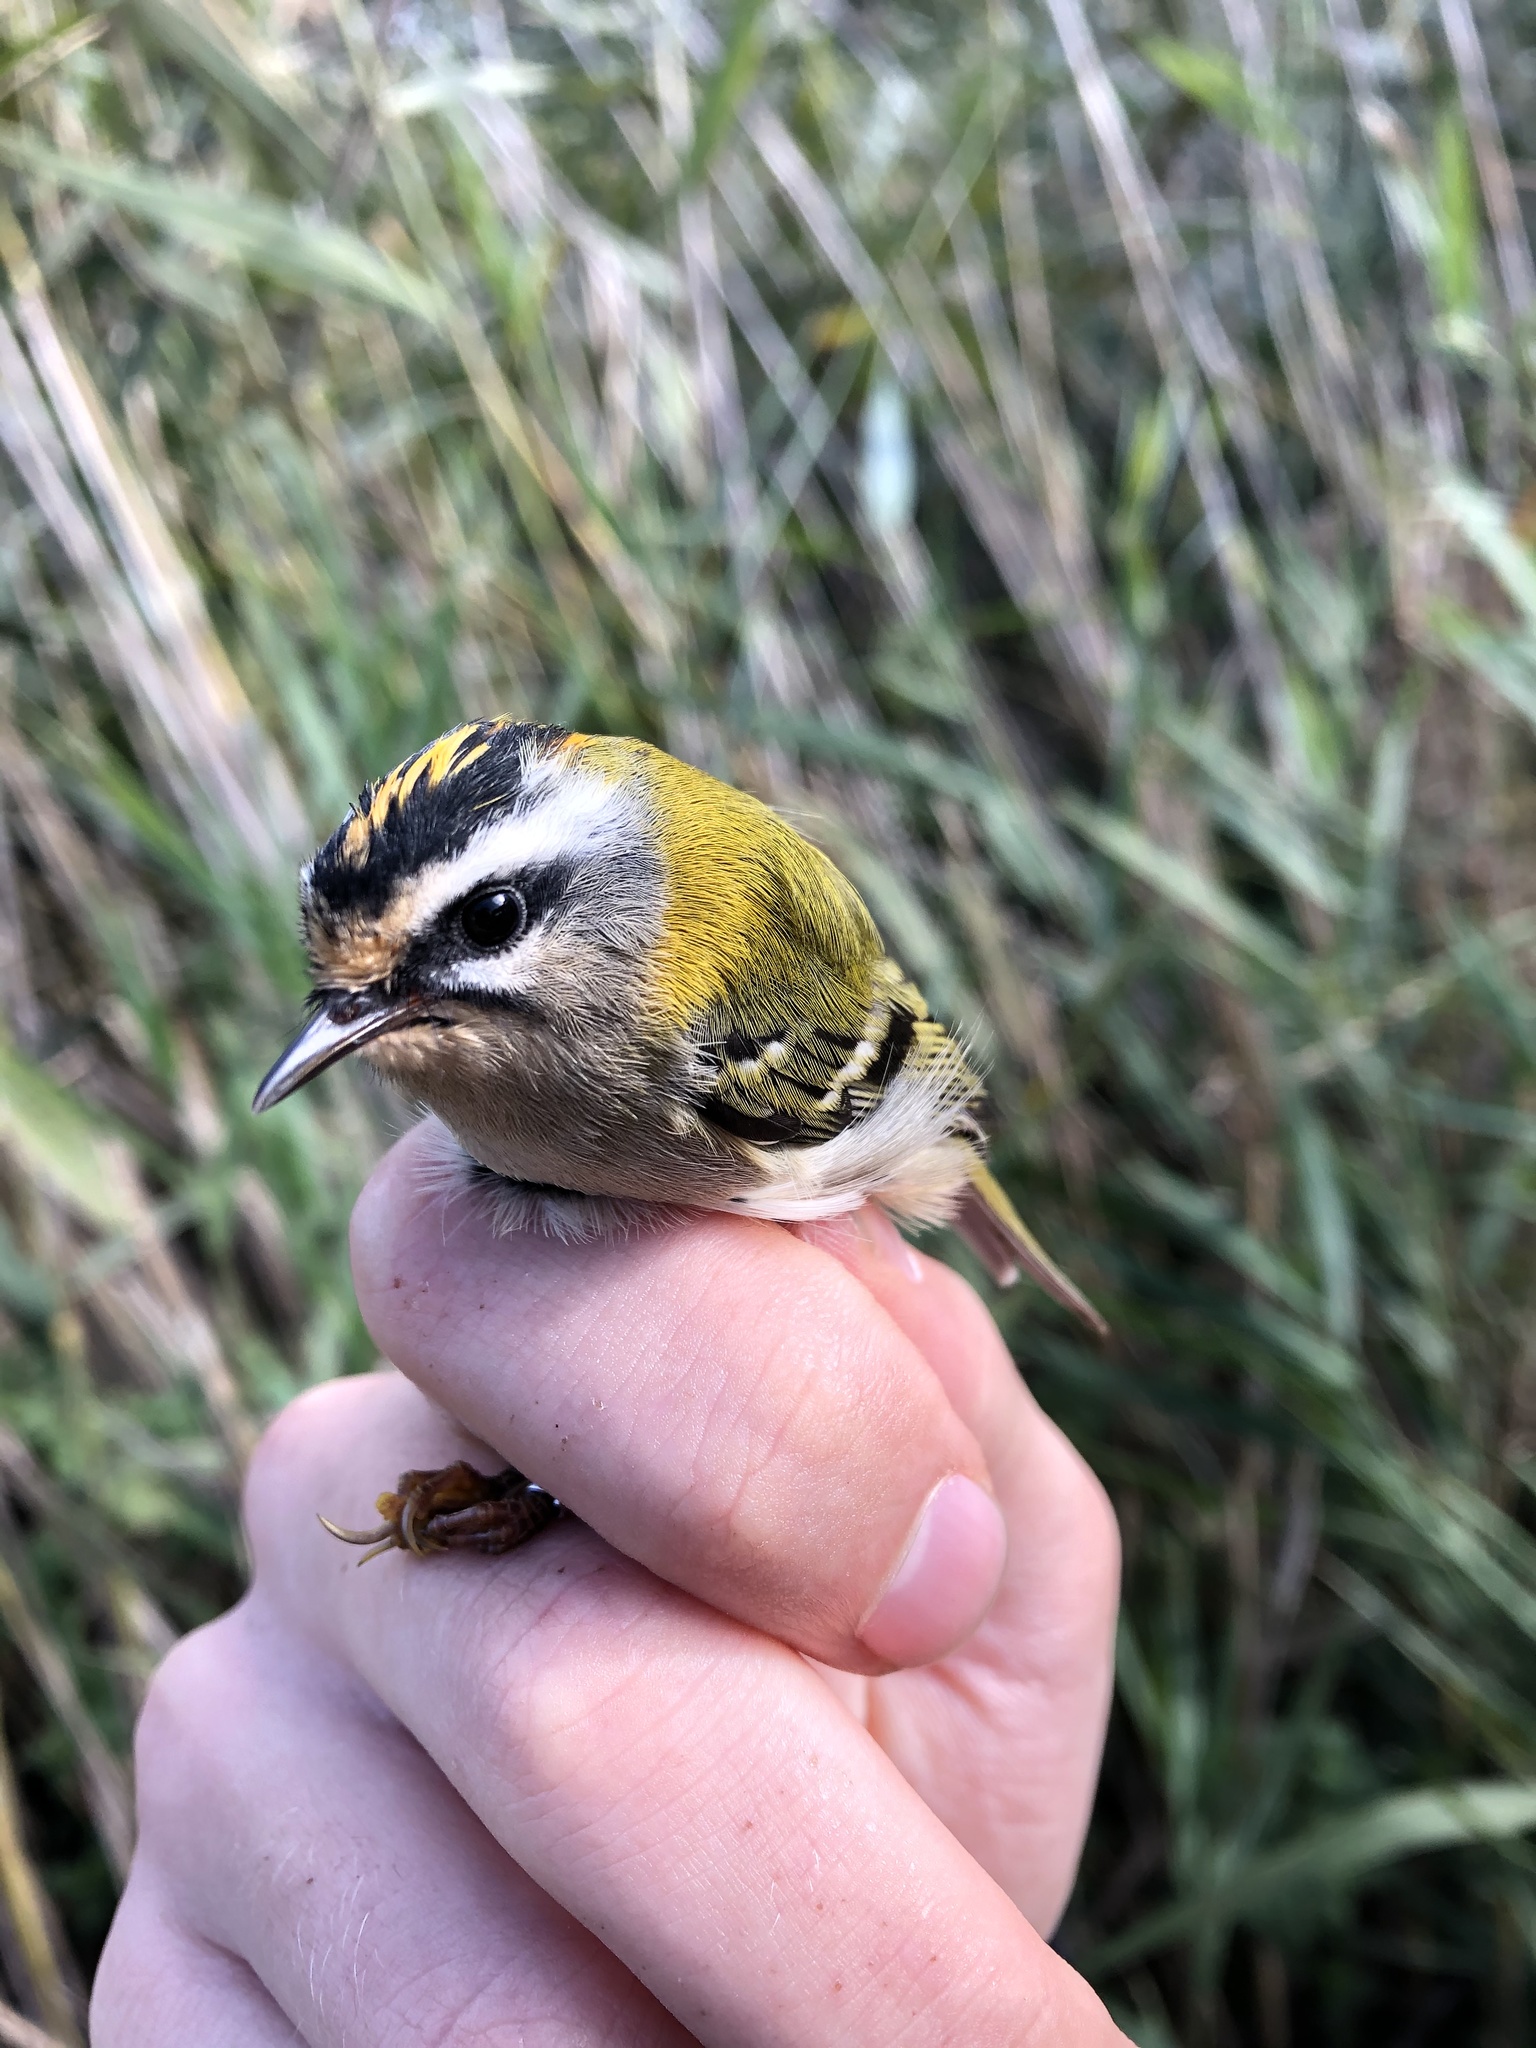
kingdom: Animalia
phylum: Chordata
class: Aves
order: Passeriformes
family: Regulidae
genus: Regulus
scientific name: Regulus ignicapilla
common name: Firecrest
